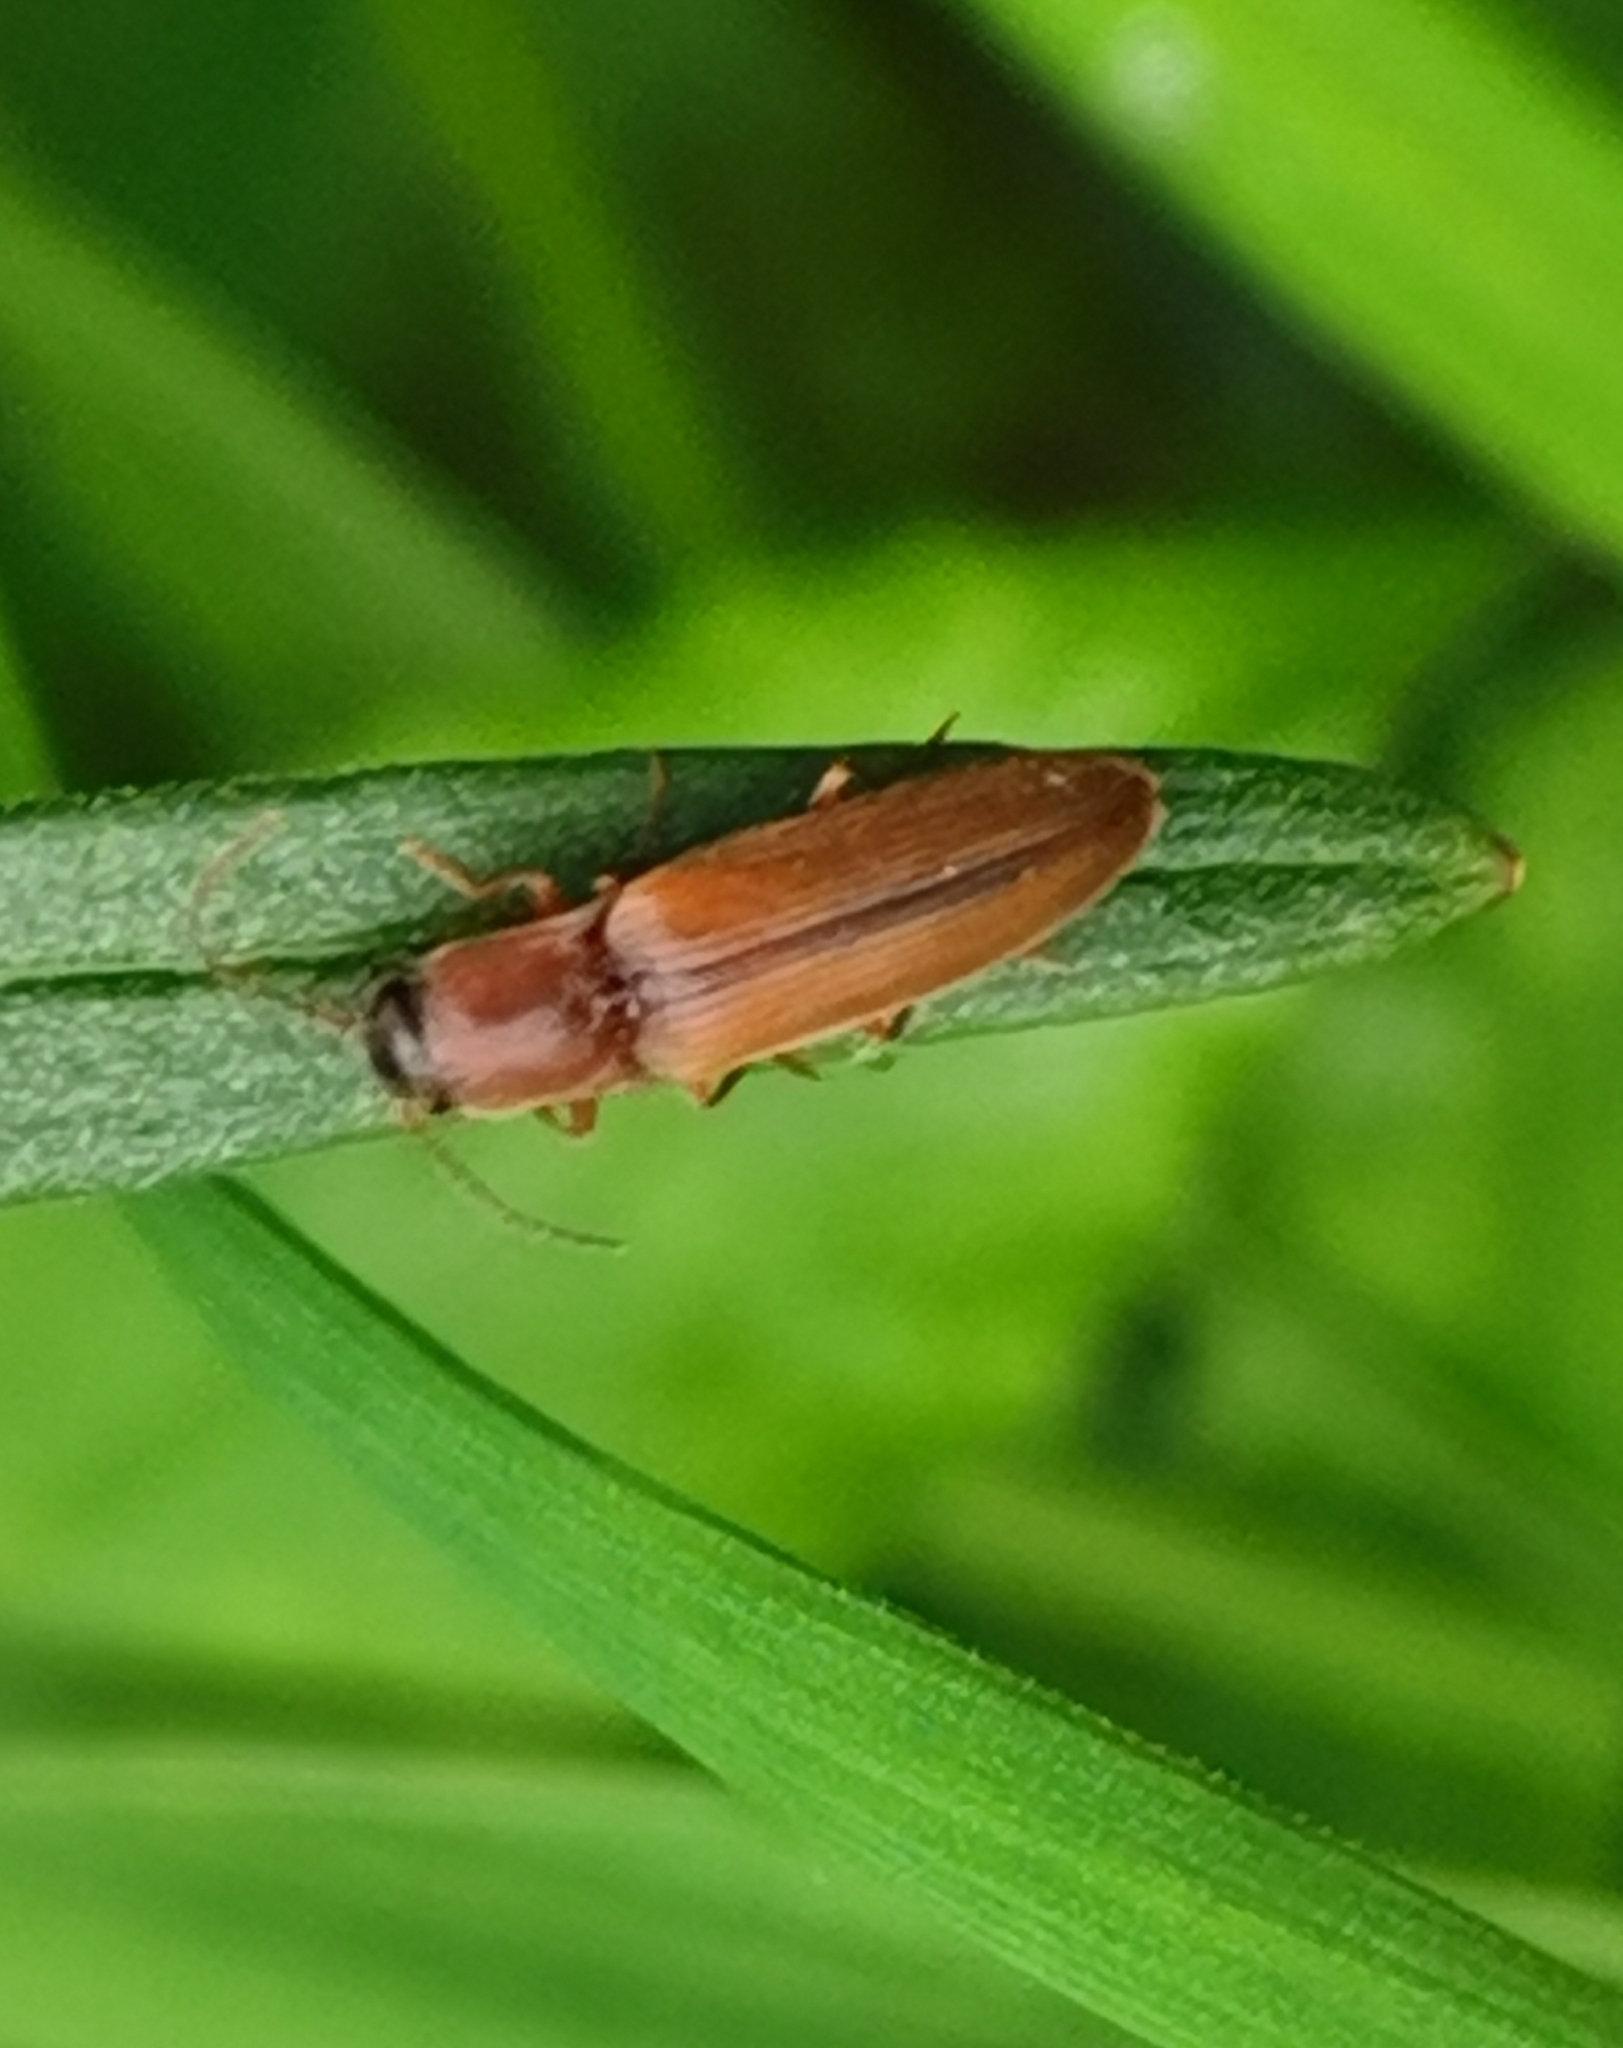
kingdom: Animalia
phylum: Arthropoda
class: Insecta
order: Coleoptera
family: Elateridae
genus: Dalopius
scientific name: Dalopius marginatus
